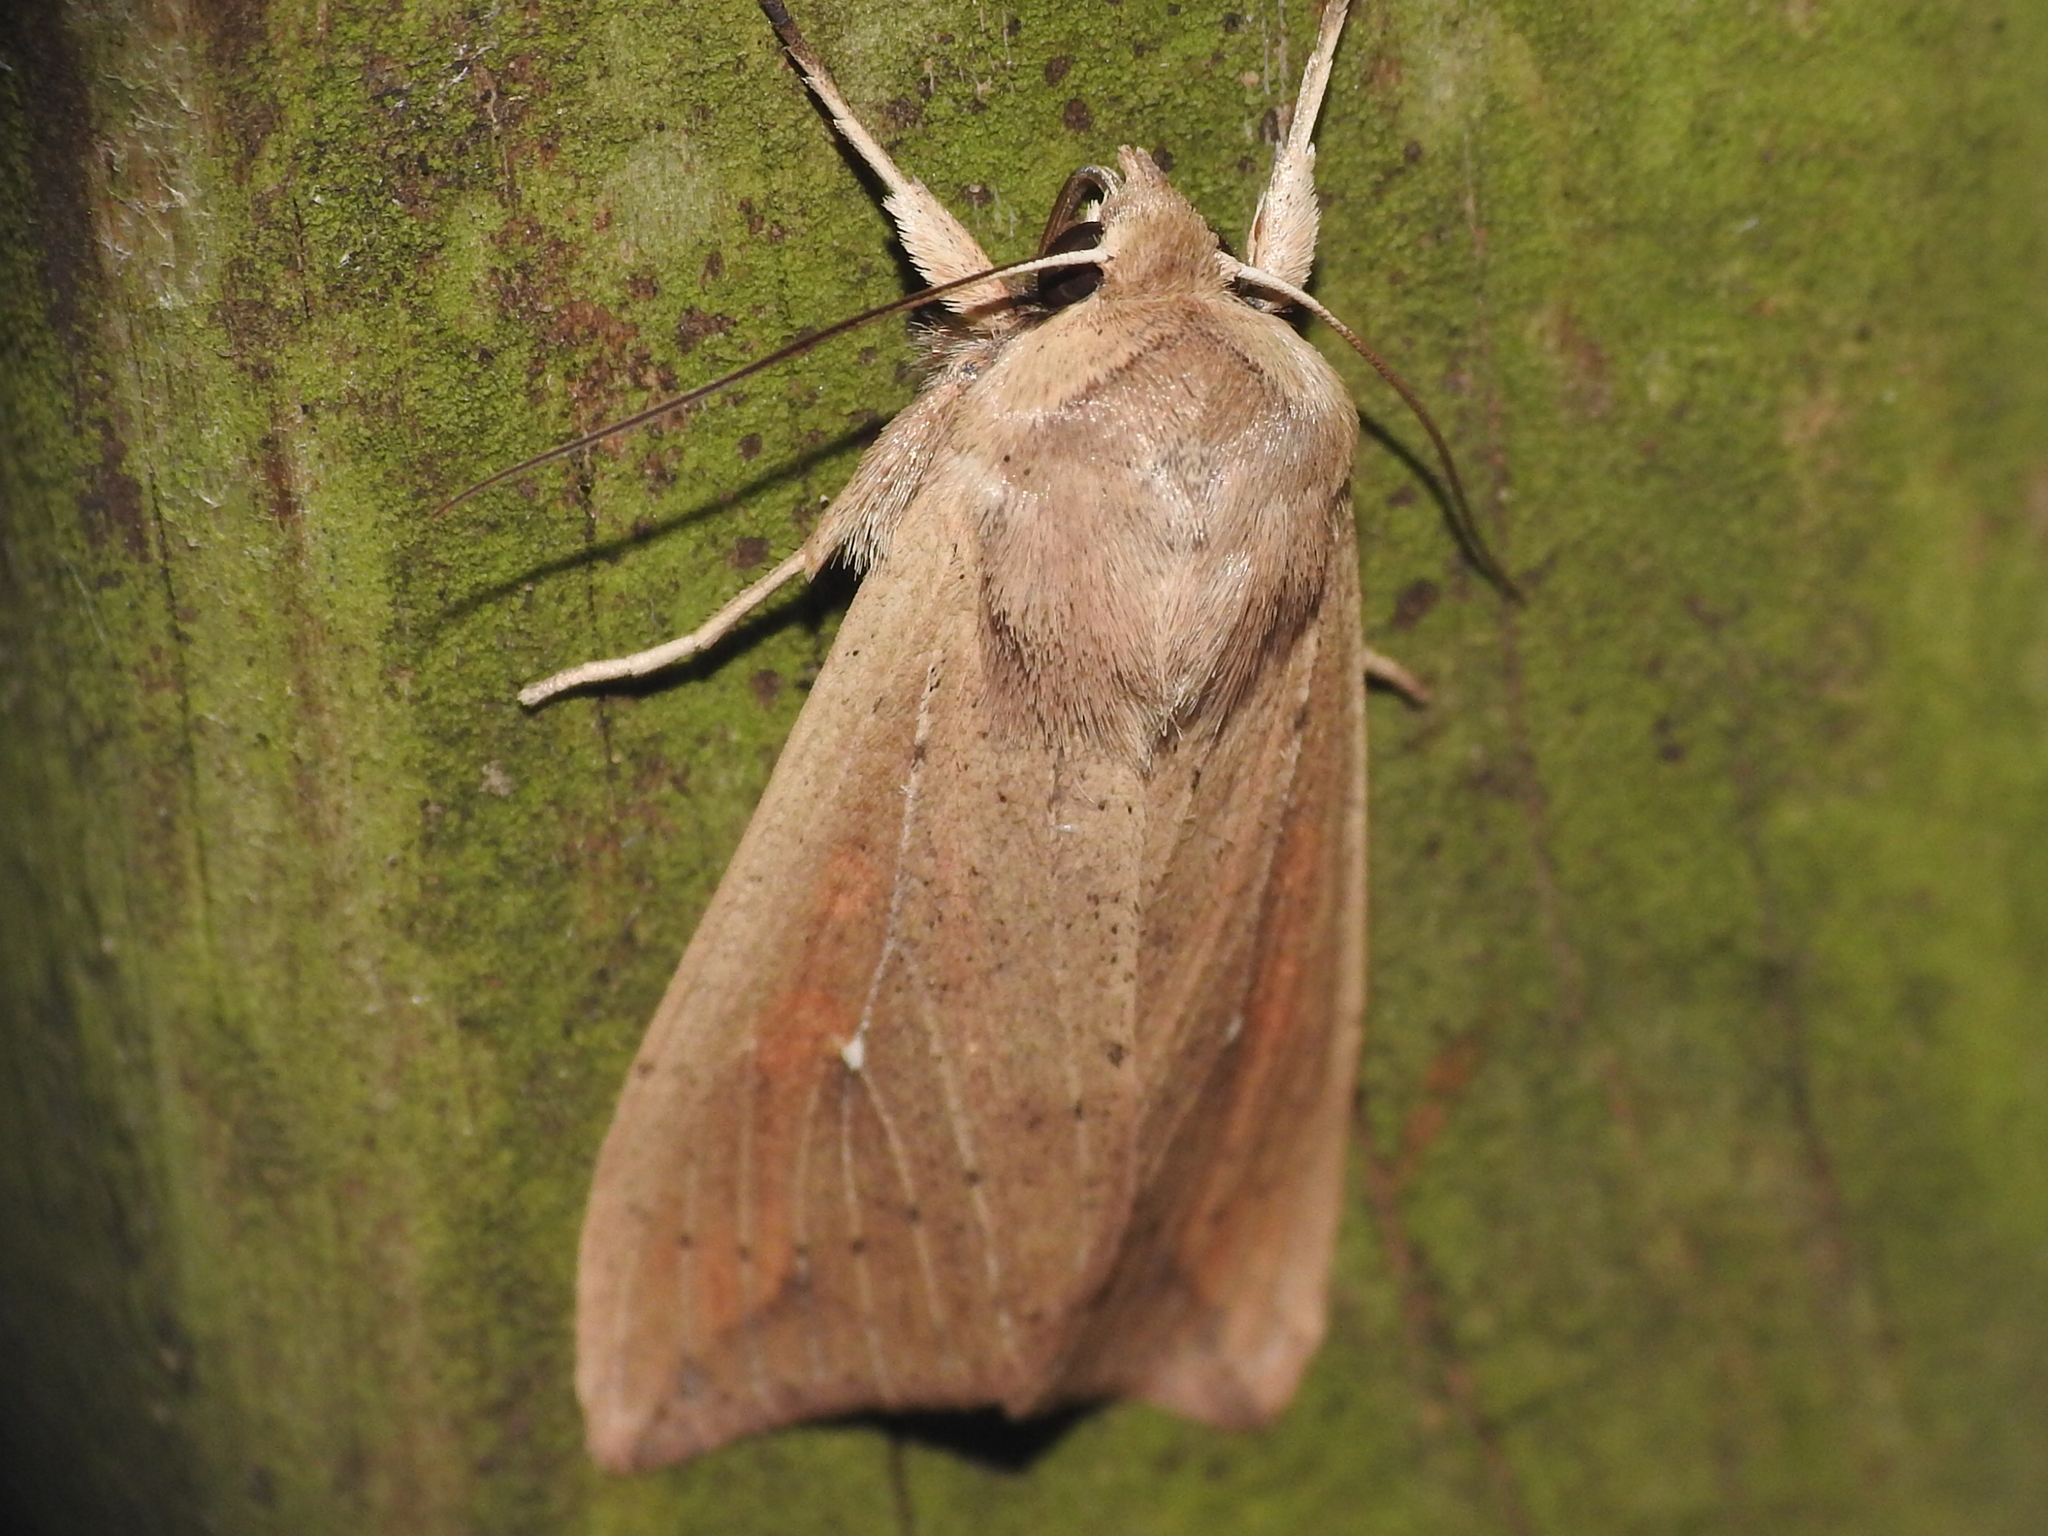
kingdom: Animalia
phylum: Arthropoda
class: Insecta
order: Lepidoptera
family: Noctuidae
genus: Mythimna
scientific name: Mythimna unipuncta
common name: White-speck
